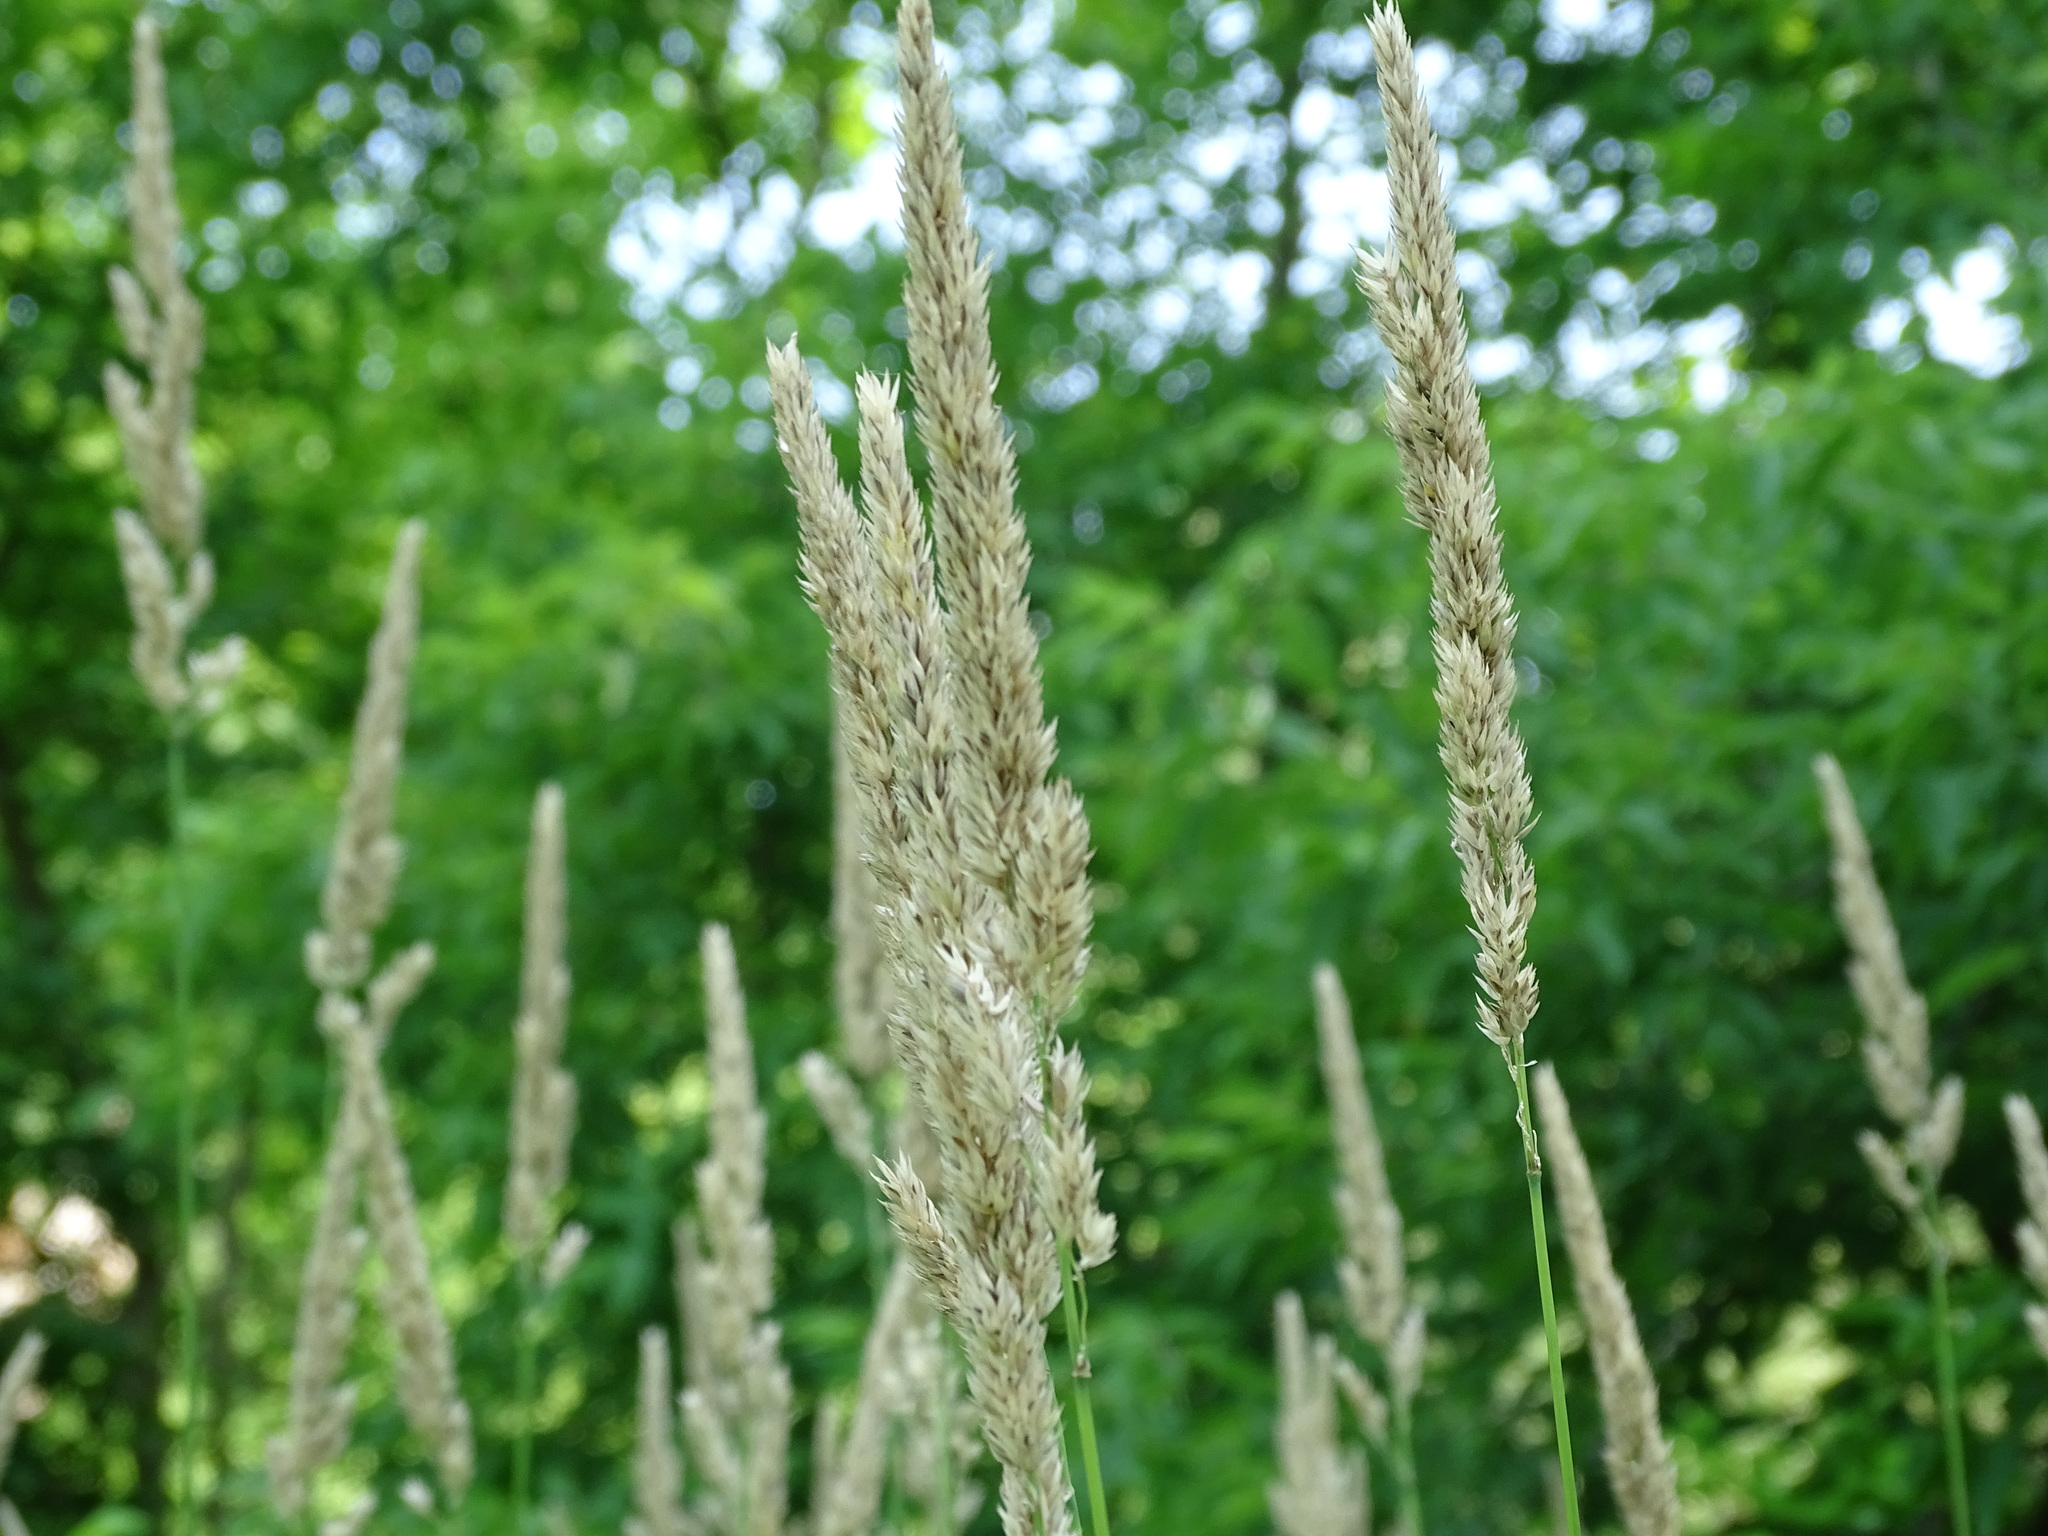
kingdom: Plantae
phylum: Tracheophyta
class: Liliopsida
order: Poales
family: Poaceae
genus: Phalaris
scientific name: Phalaris arundinacea
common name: Reed canary-grass
